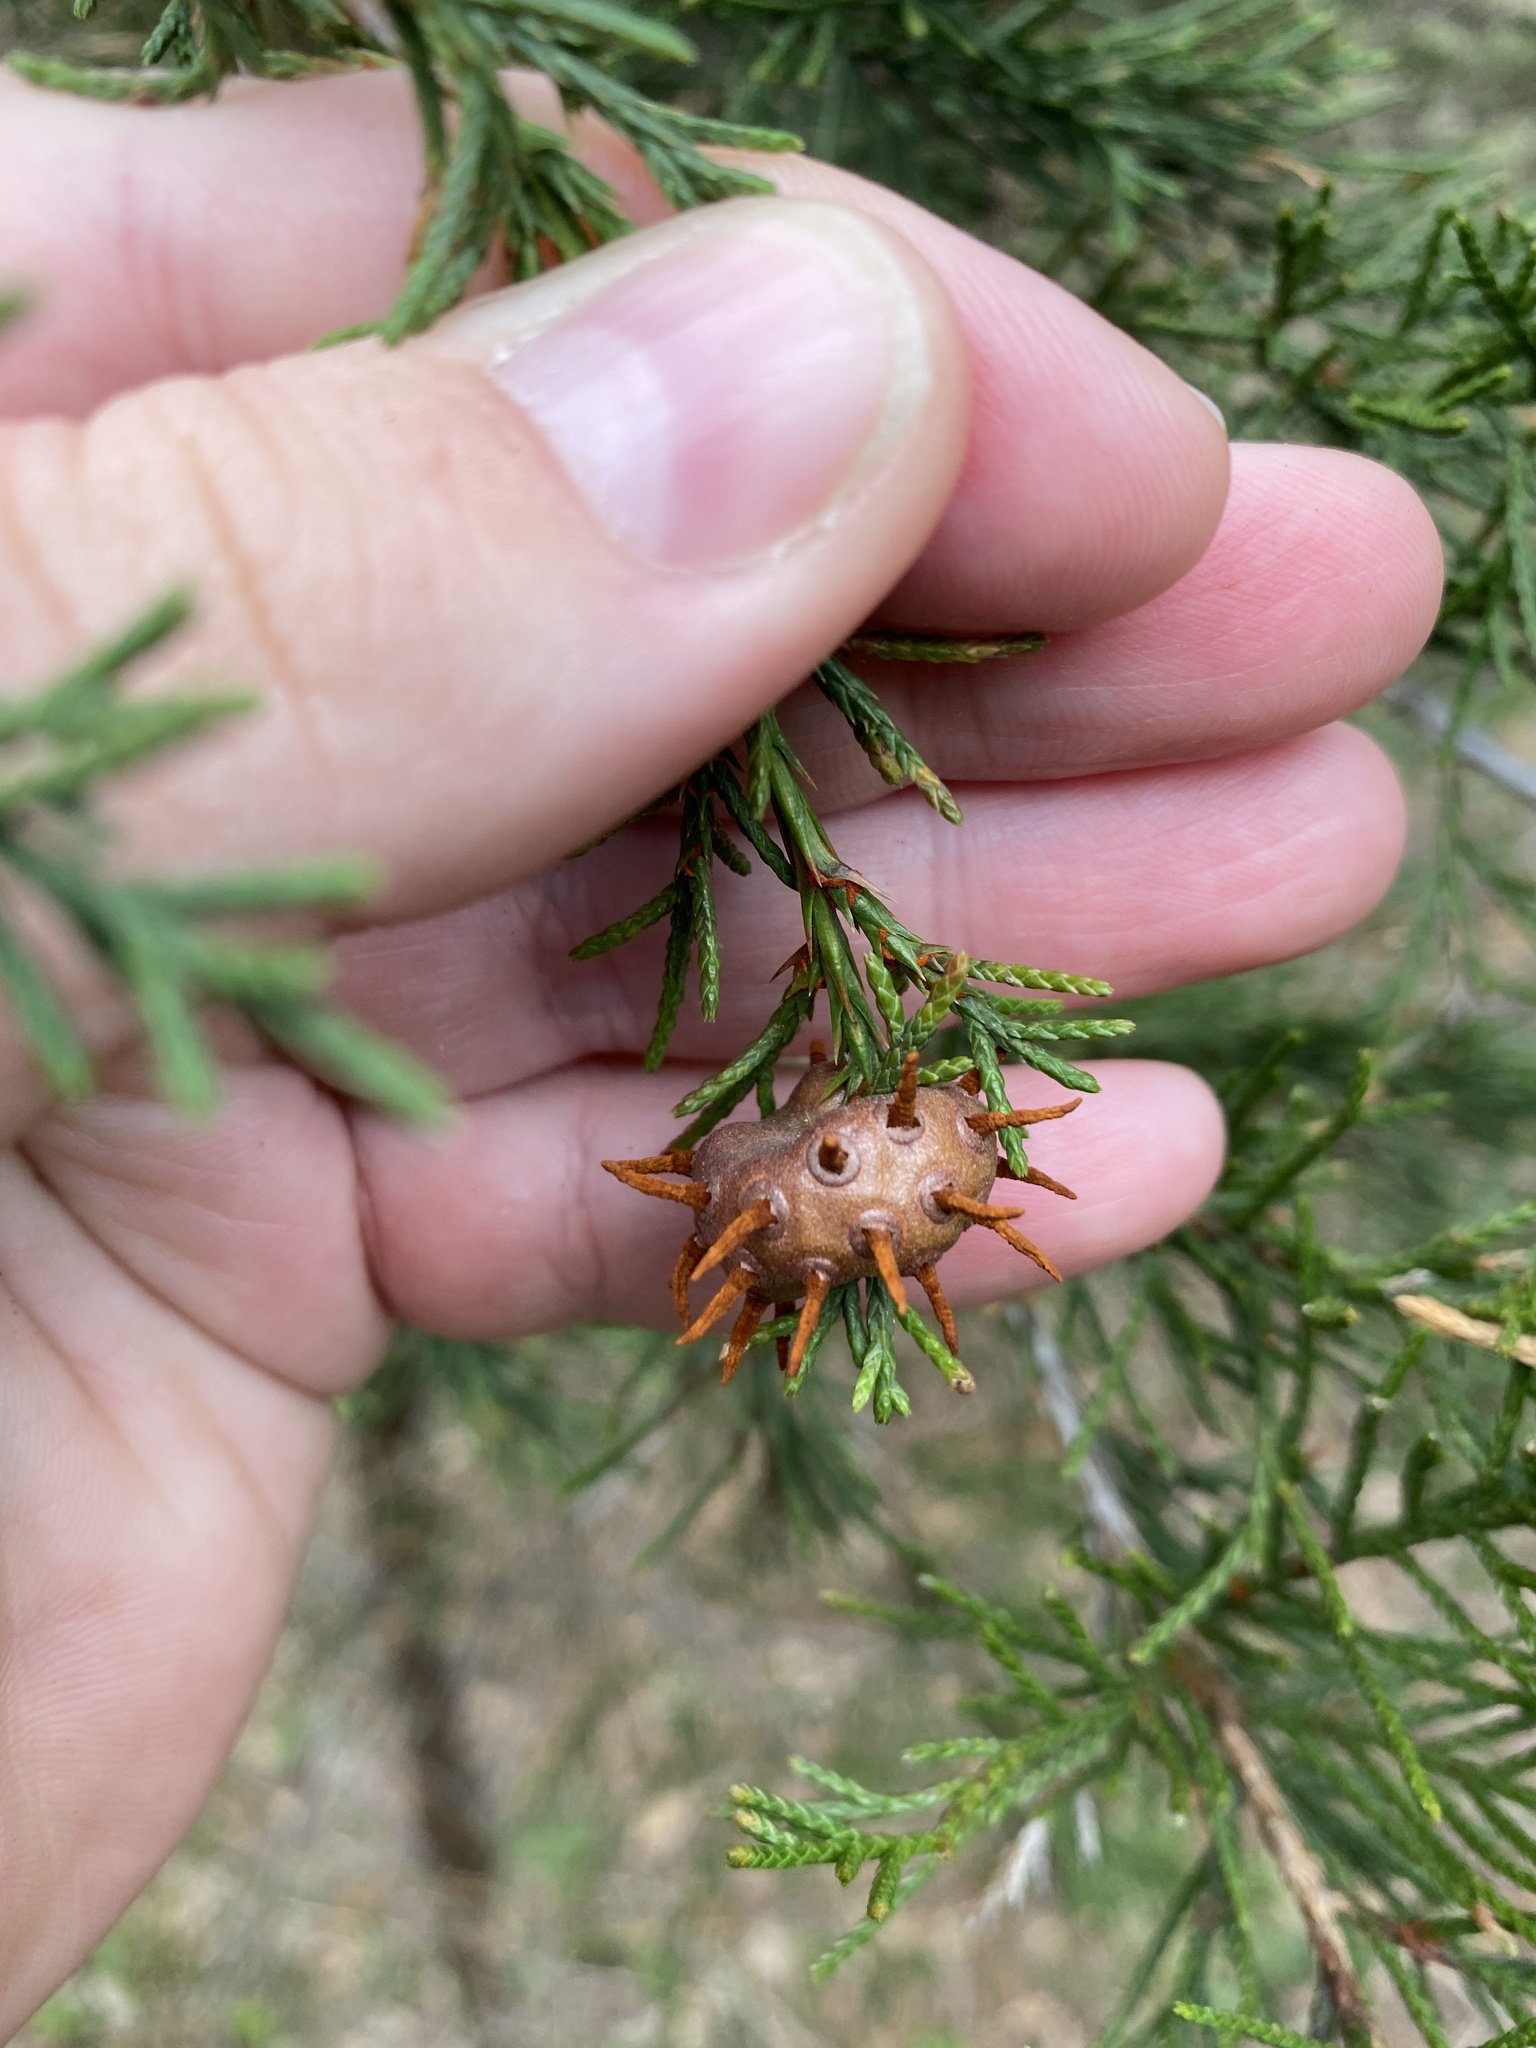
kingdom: Fungi
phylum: Basidiomycota
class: Pucciniomycetes
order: Pucciniales
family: Gymnosporangiaceae
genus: Gymnosporangium
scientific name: Gymnosporangium juniperi-virginianae
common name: Juniper-apple rust
